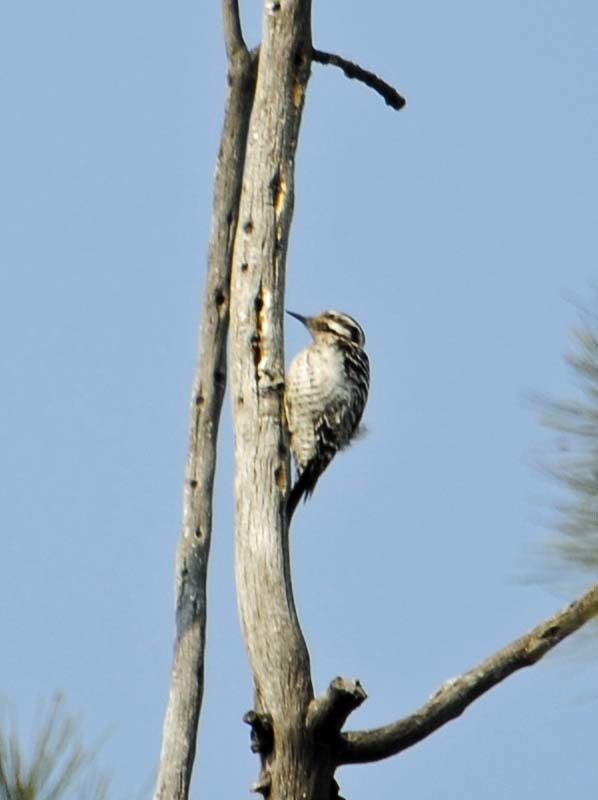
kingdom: Animalia
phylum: Chordata
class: Aves
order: Piciformes
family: Picidae
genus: Dryobates
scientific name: Dryobates scalaris
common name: Ladder-backed woodpecker
